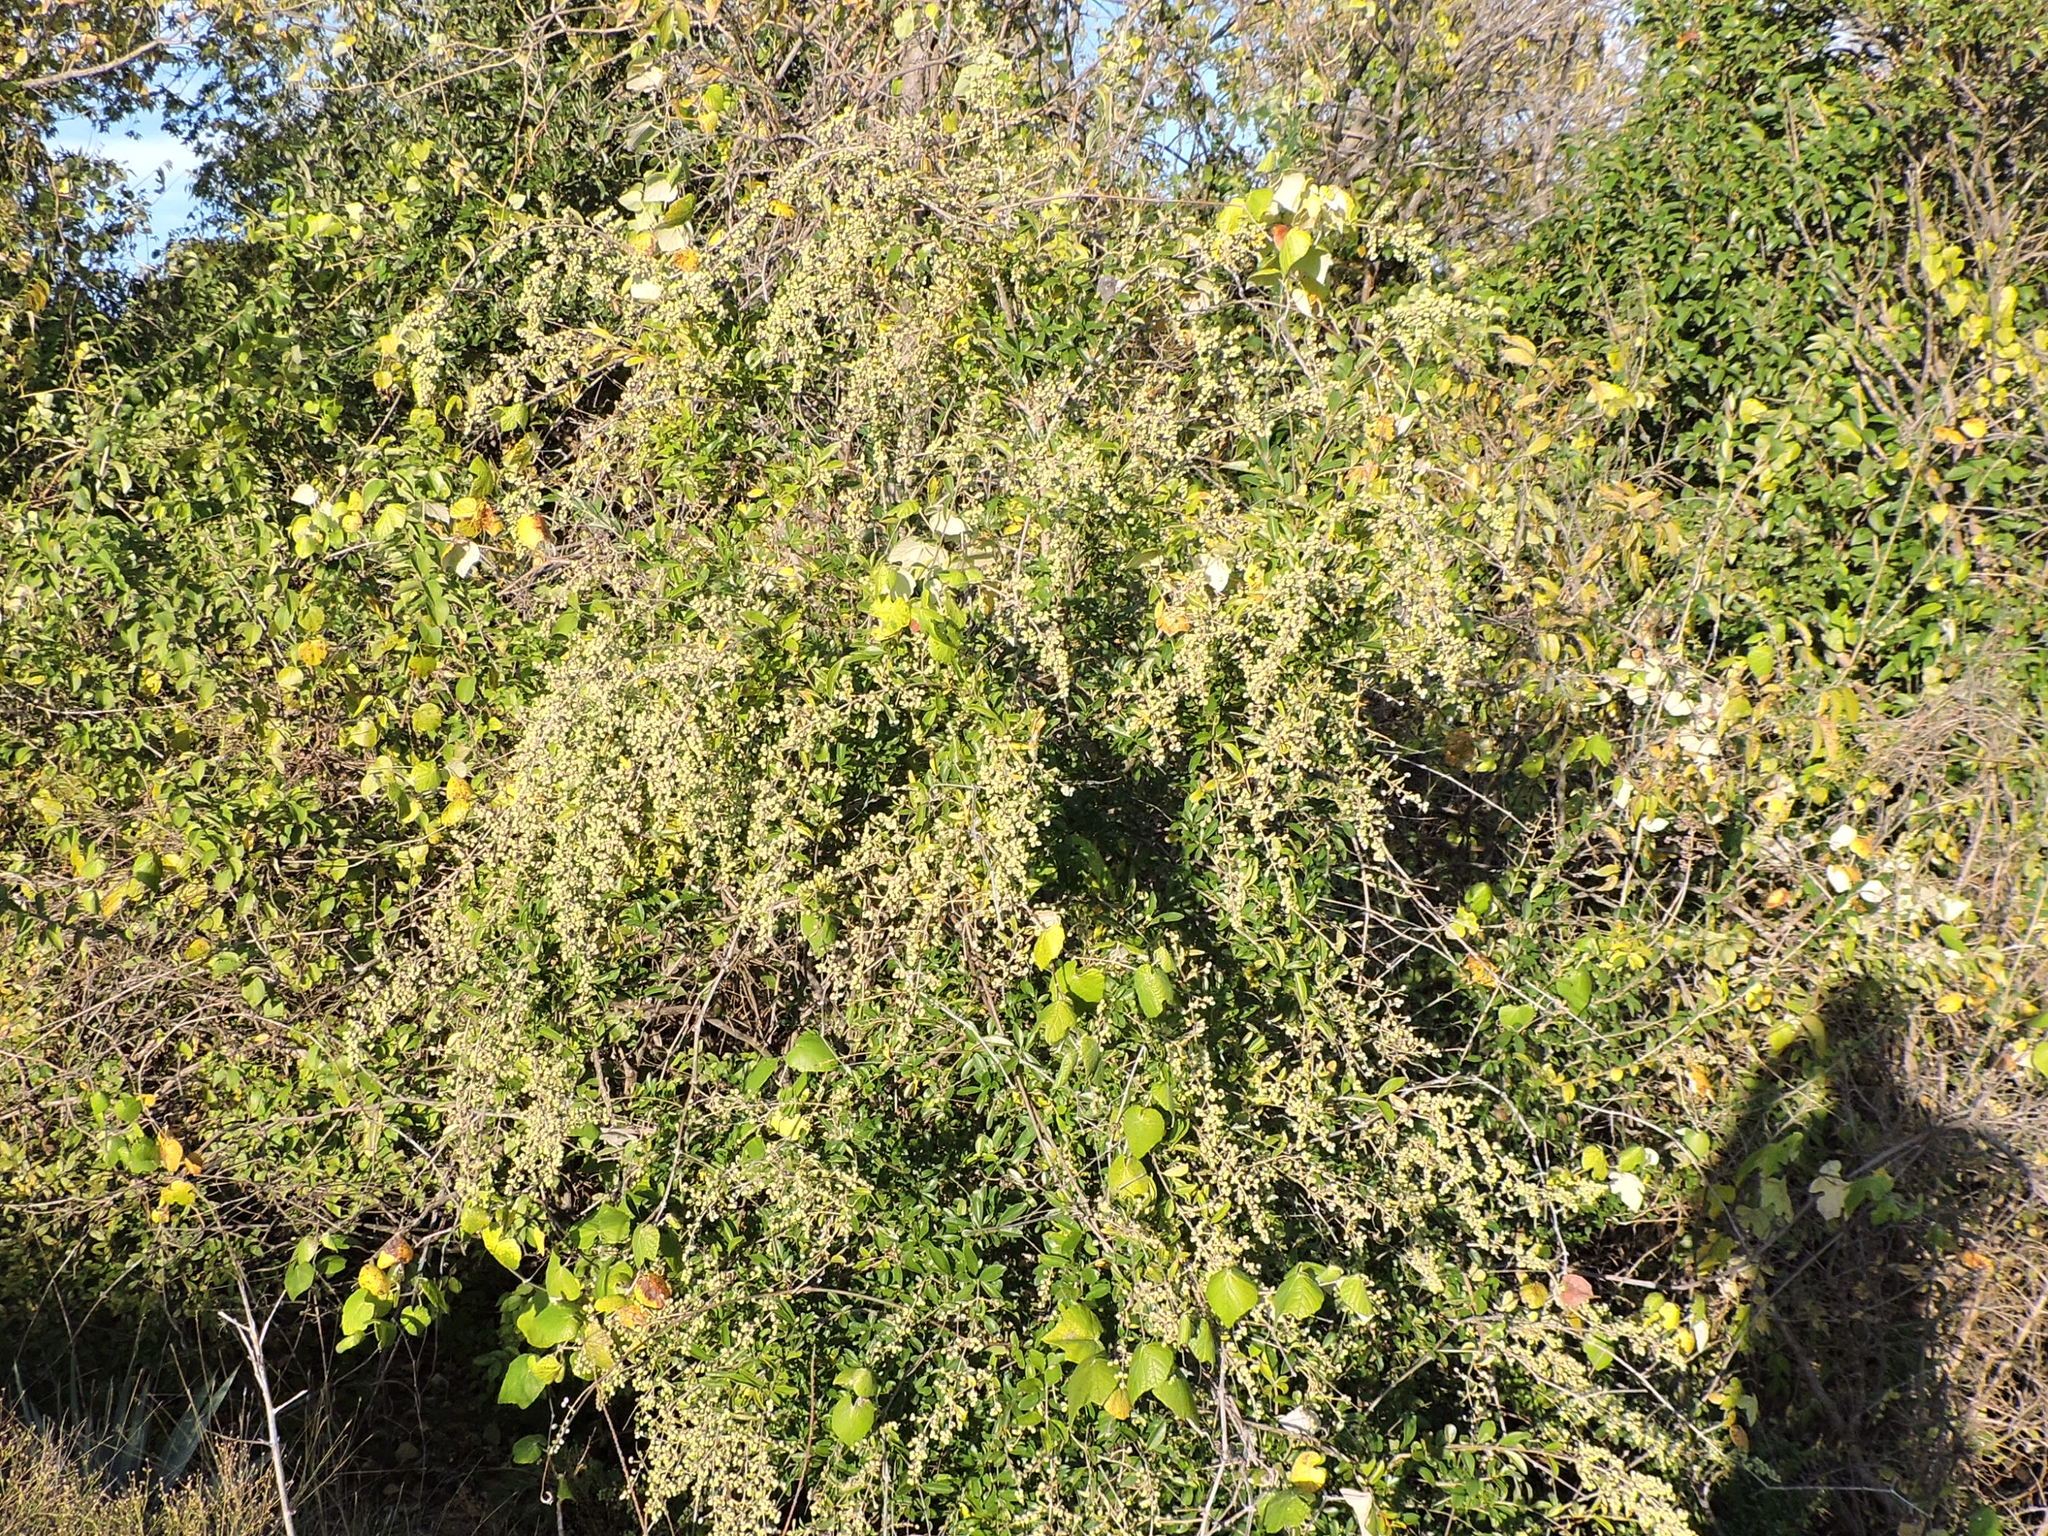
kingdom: Plantae
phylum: Tracheophyta
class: Magnoliopsida
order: Lamiales
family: Oleaceae
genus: Ligustrum
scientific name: Ligustrum quihoui
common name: Waxyleaf privet
